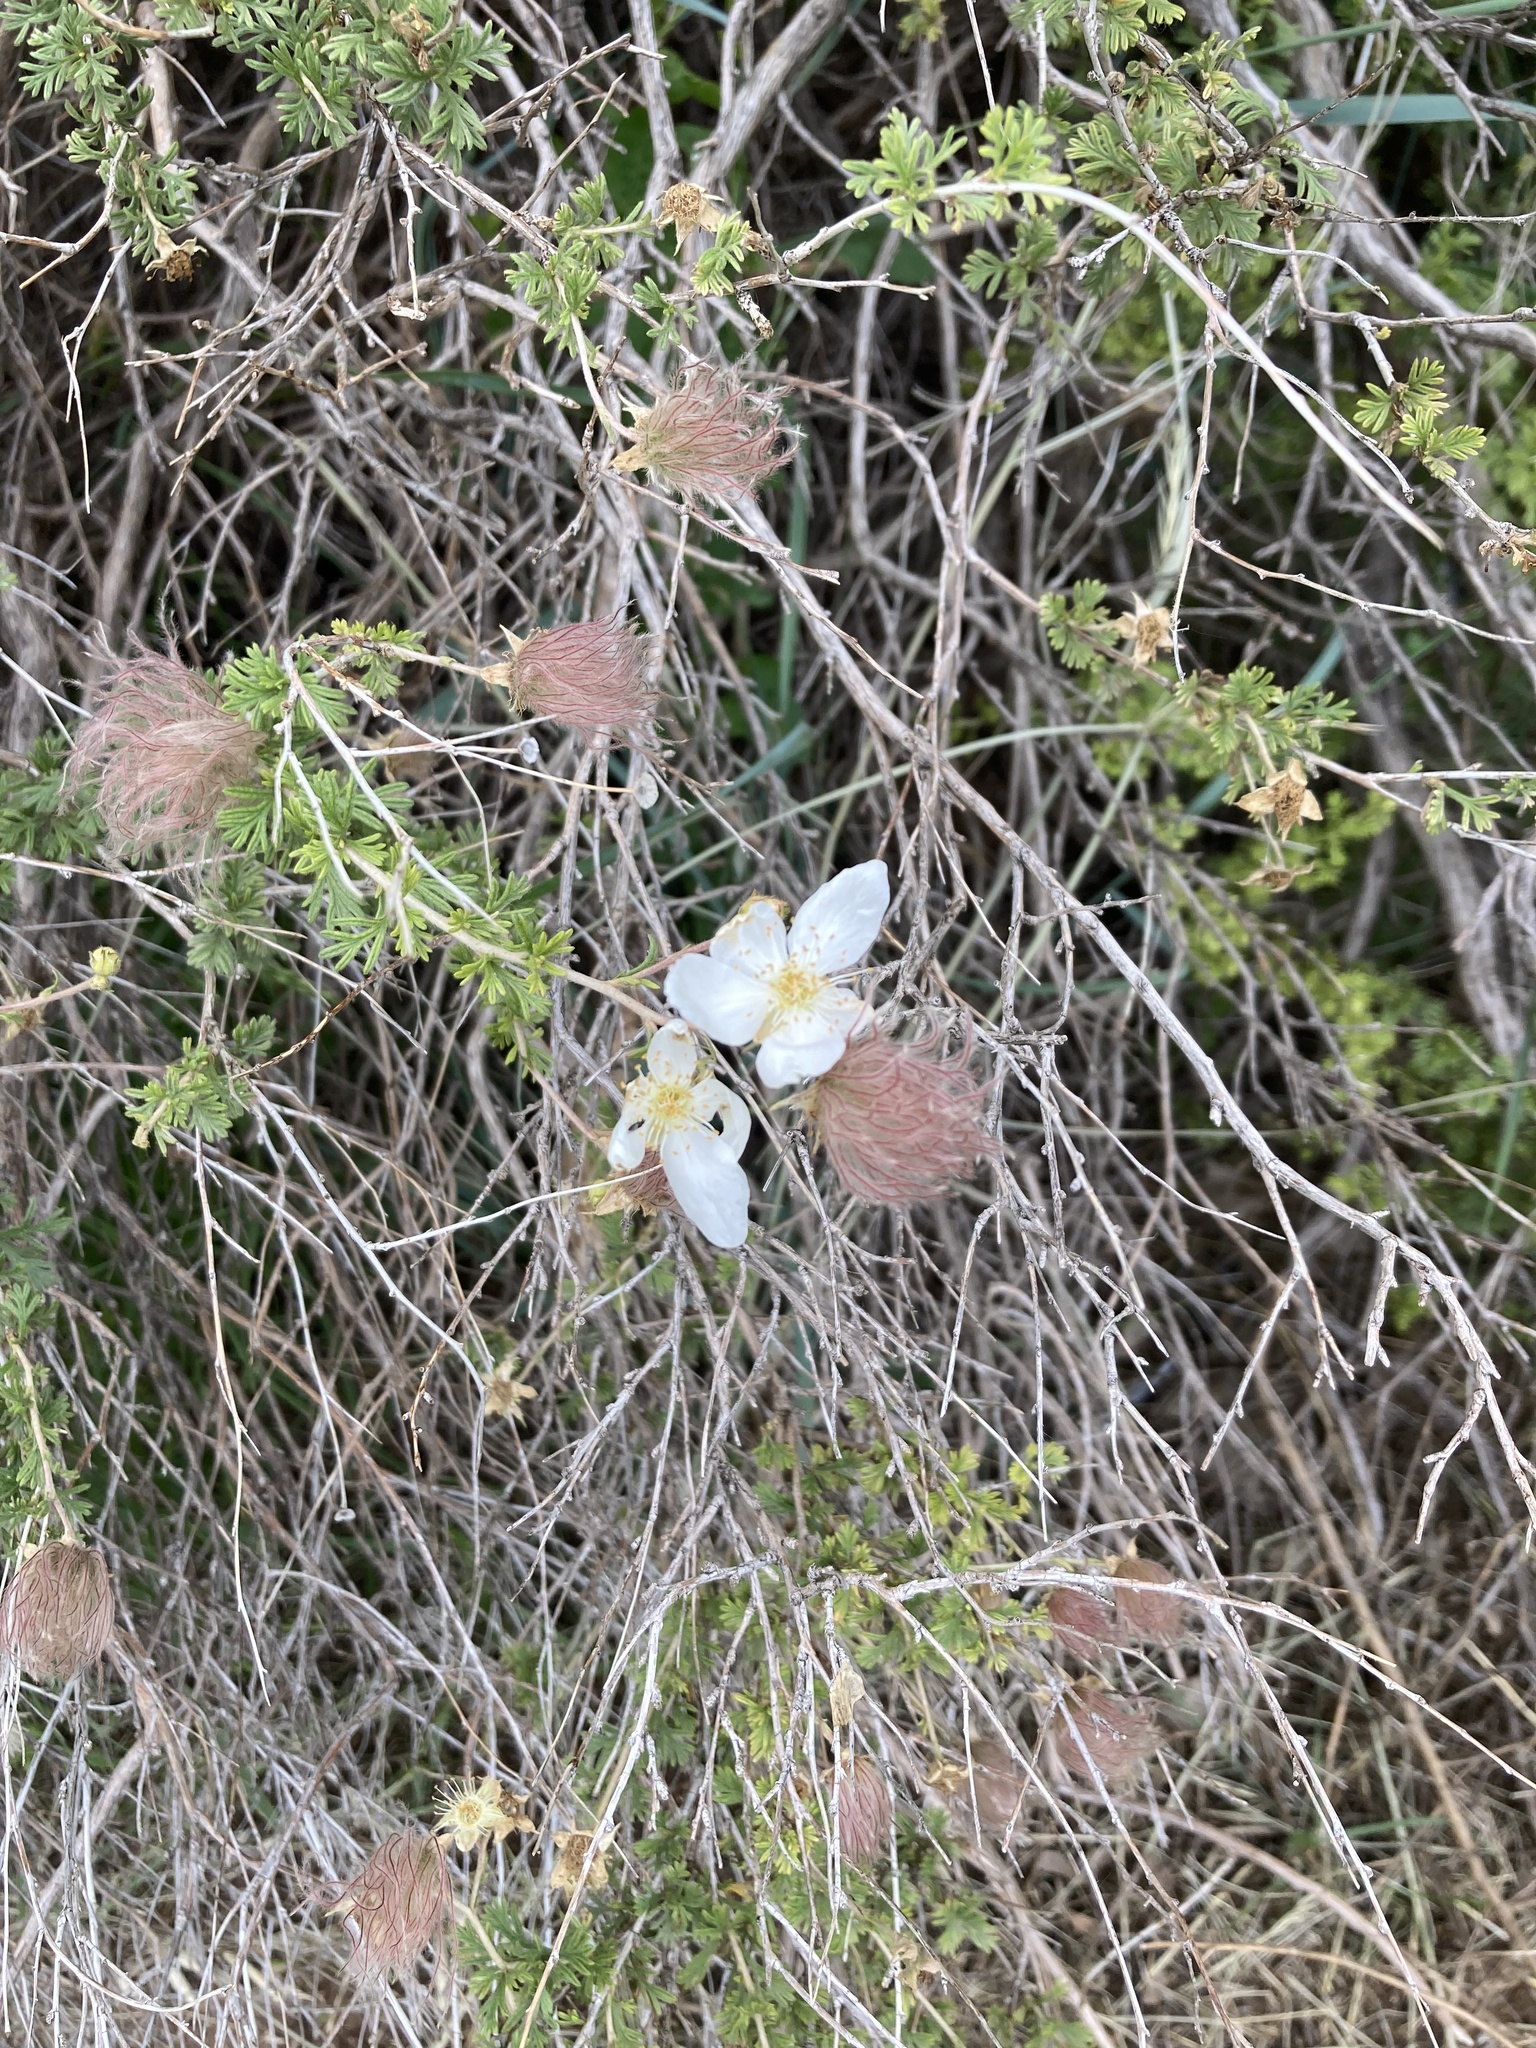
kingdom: Plantae
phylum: Tracheophyta
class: Magnoliopsida
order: Rosales
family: Rosaceae
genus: Fallugia
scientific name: Fallugia paradoxa
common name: Apache-plume
